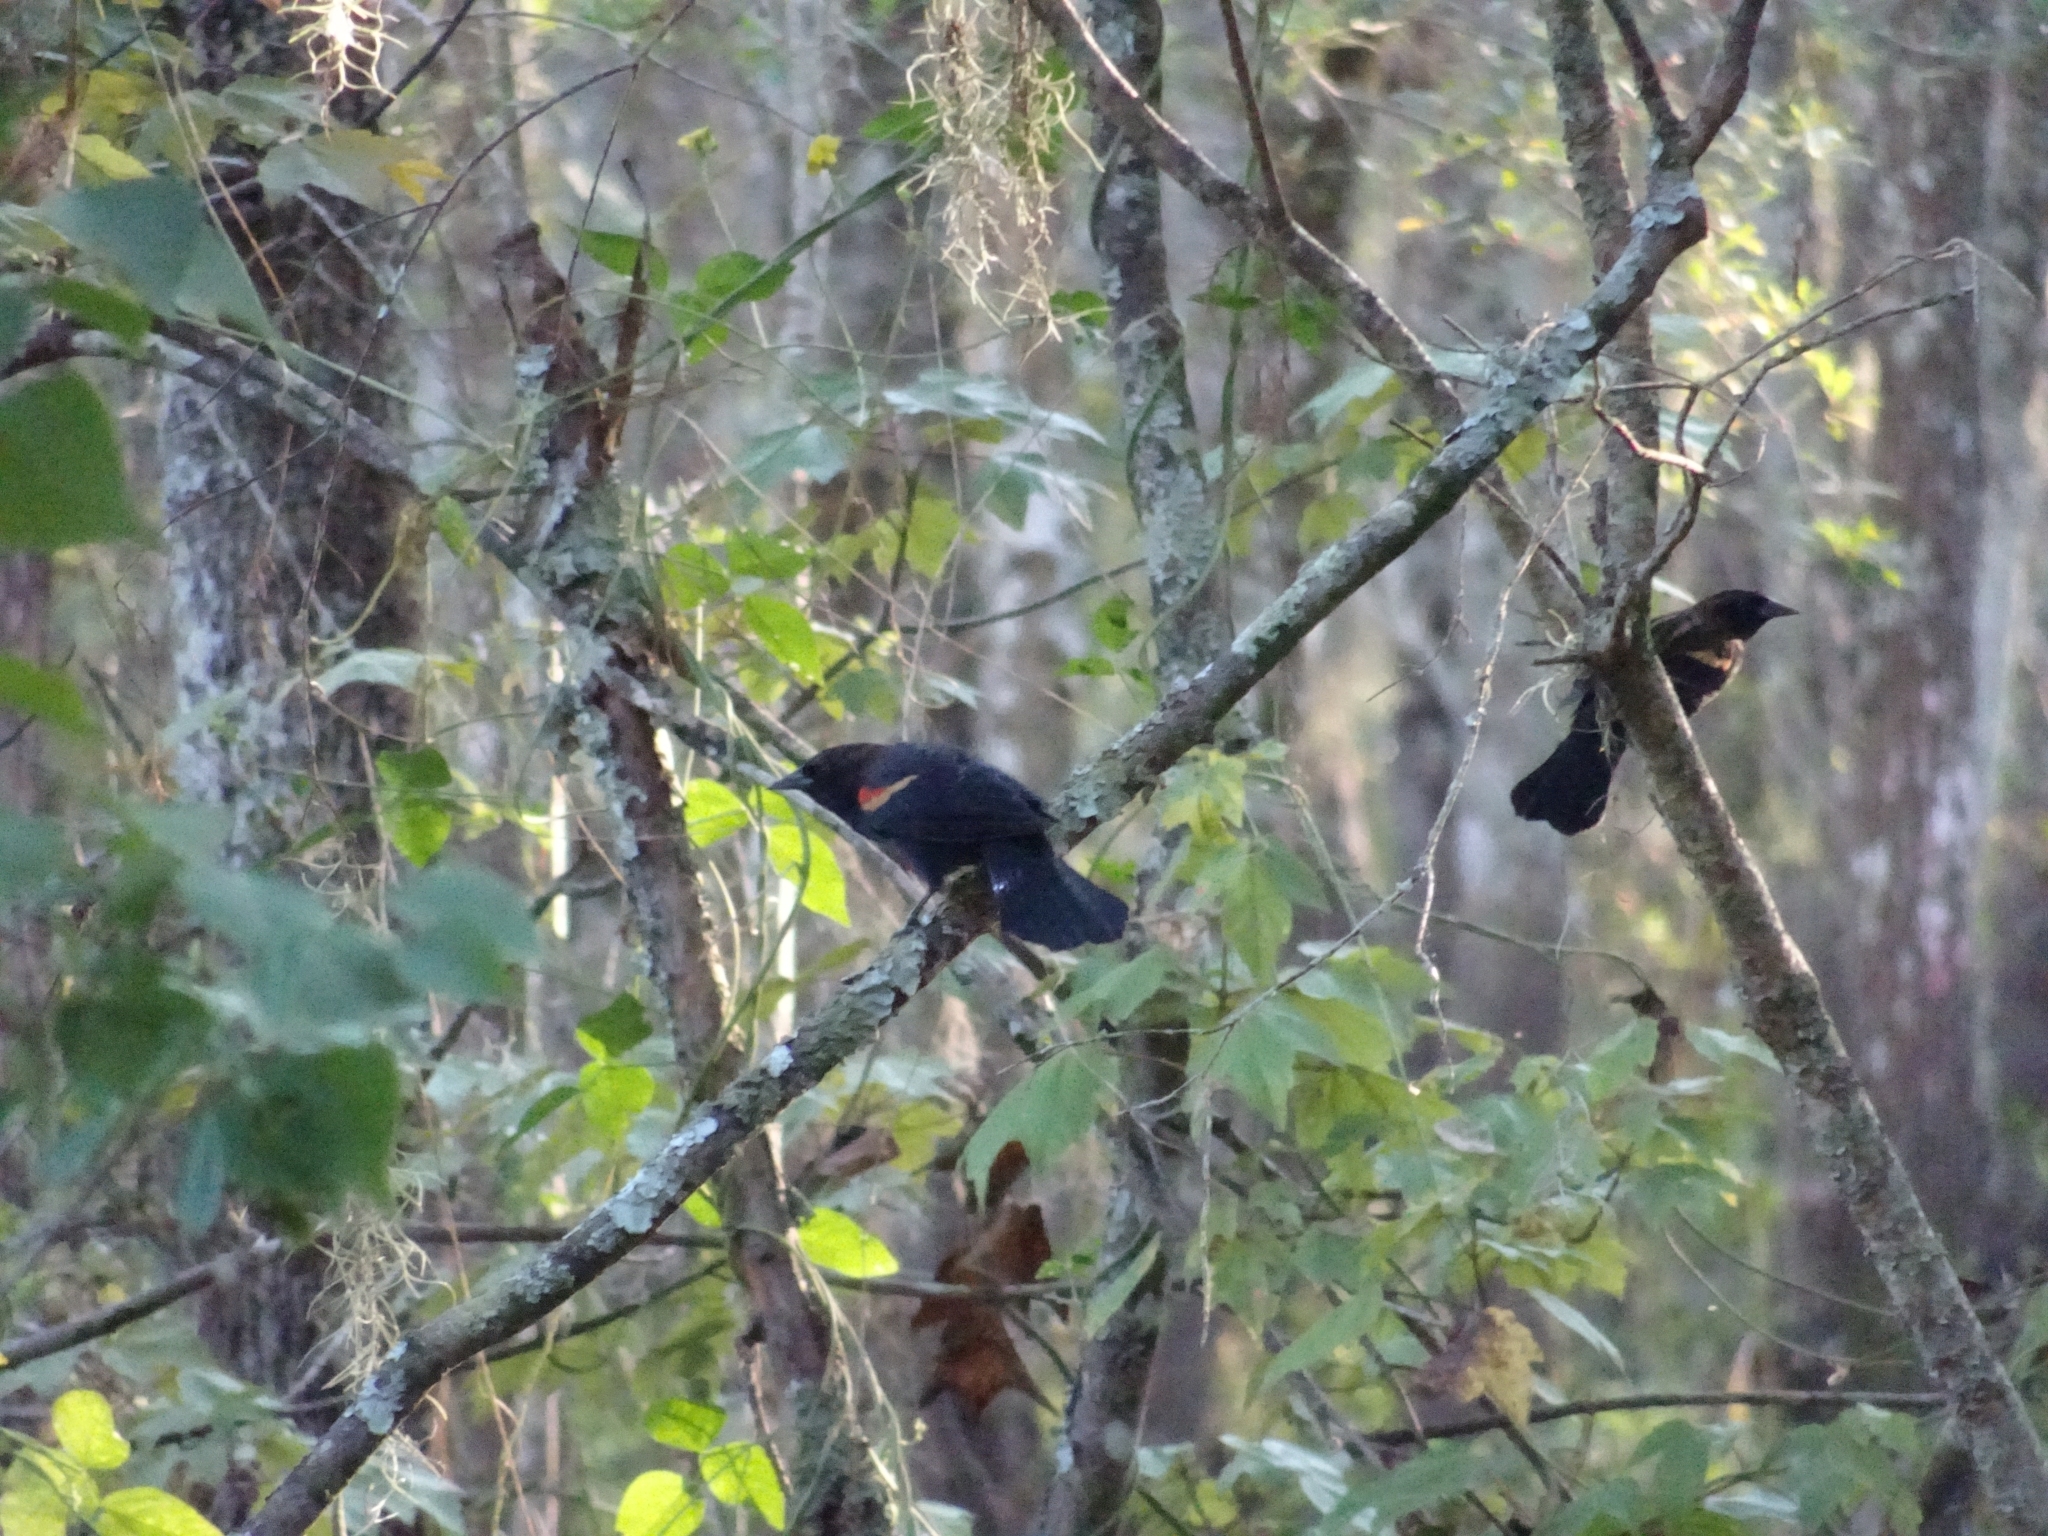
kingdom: Animalia
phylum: Chordata
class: Aves
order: Passeriformes
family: Icteridae
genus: Agelaius
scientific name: Agelaius phoeniceus
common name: Red-winged blackbird
